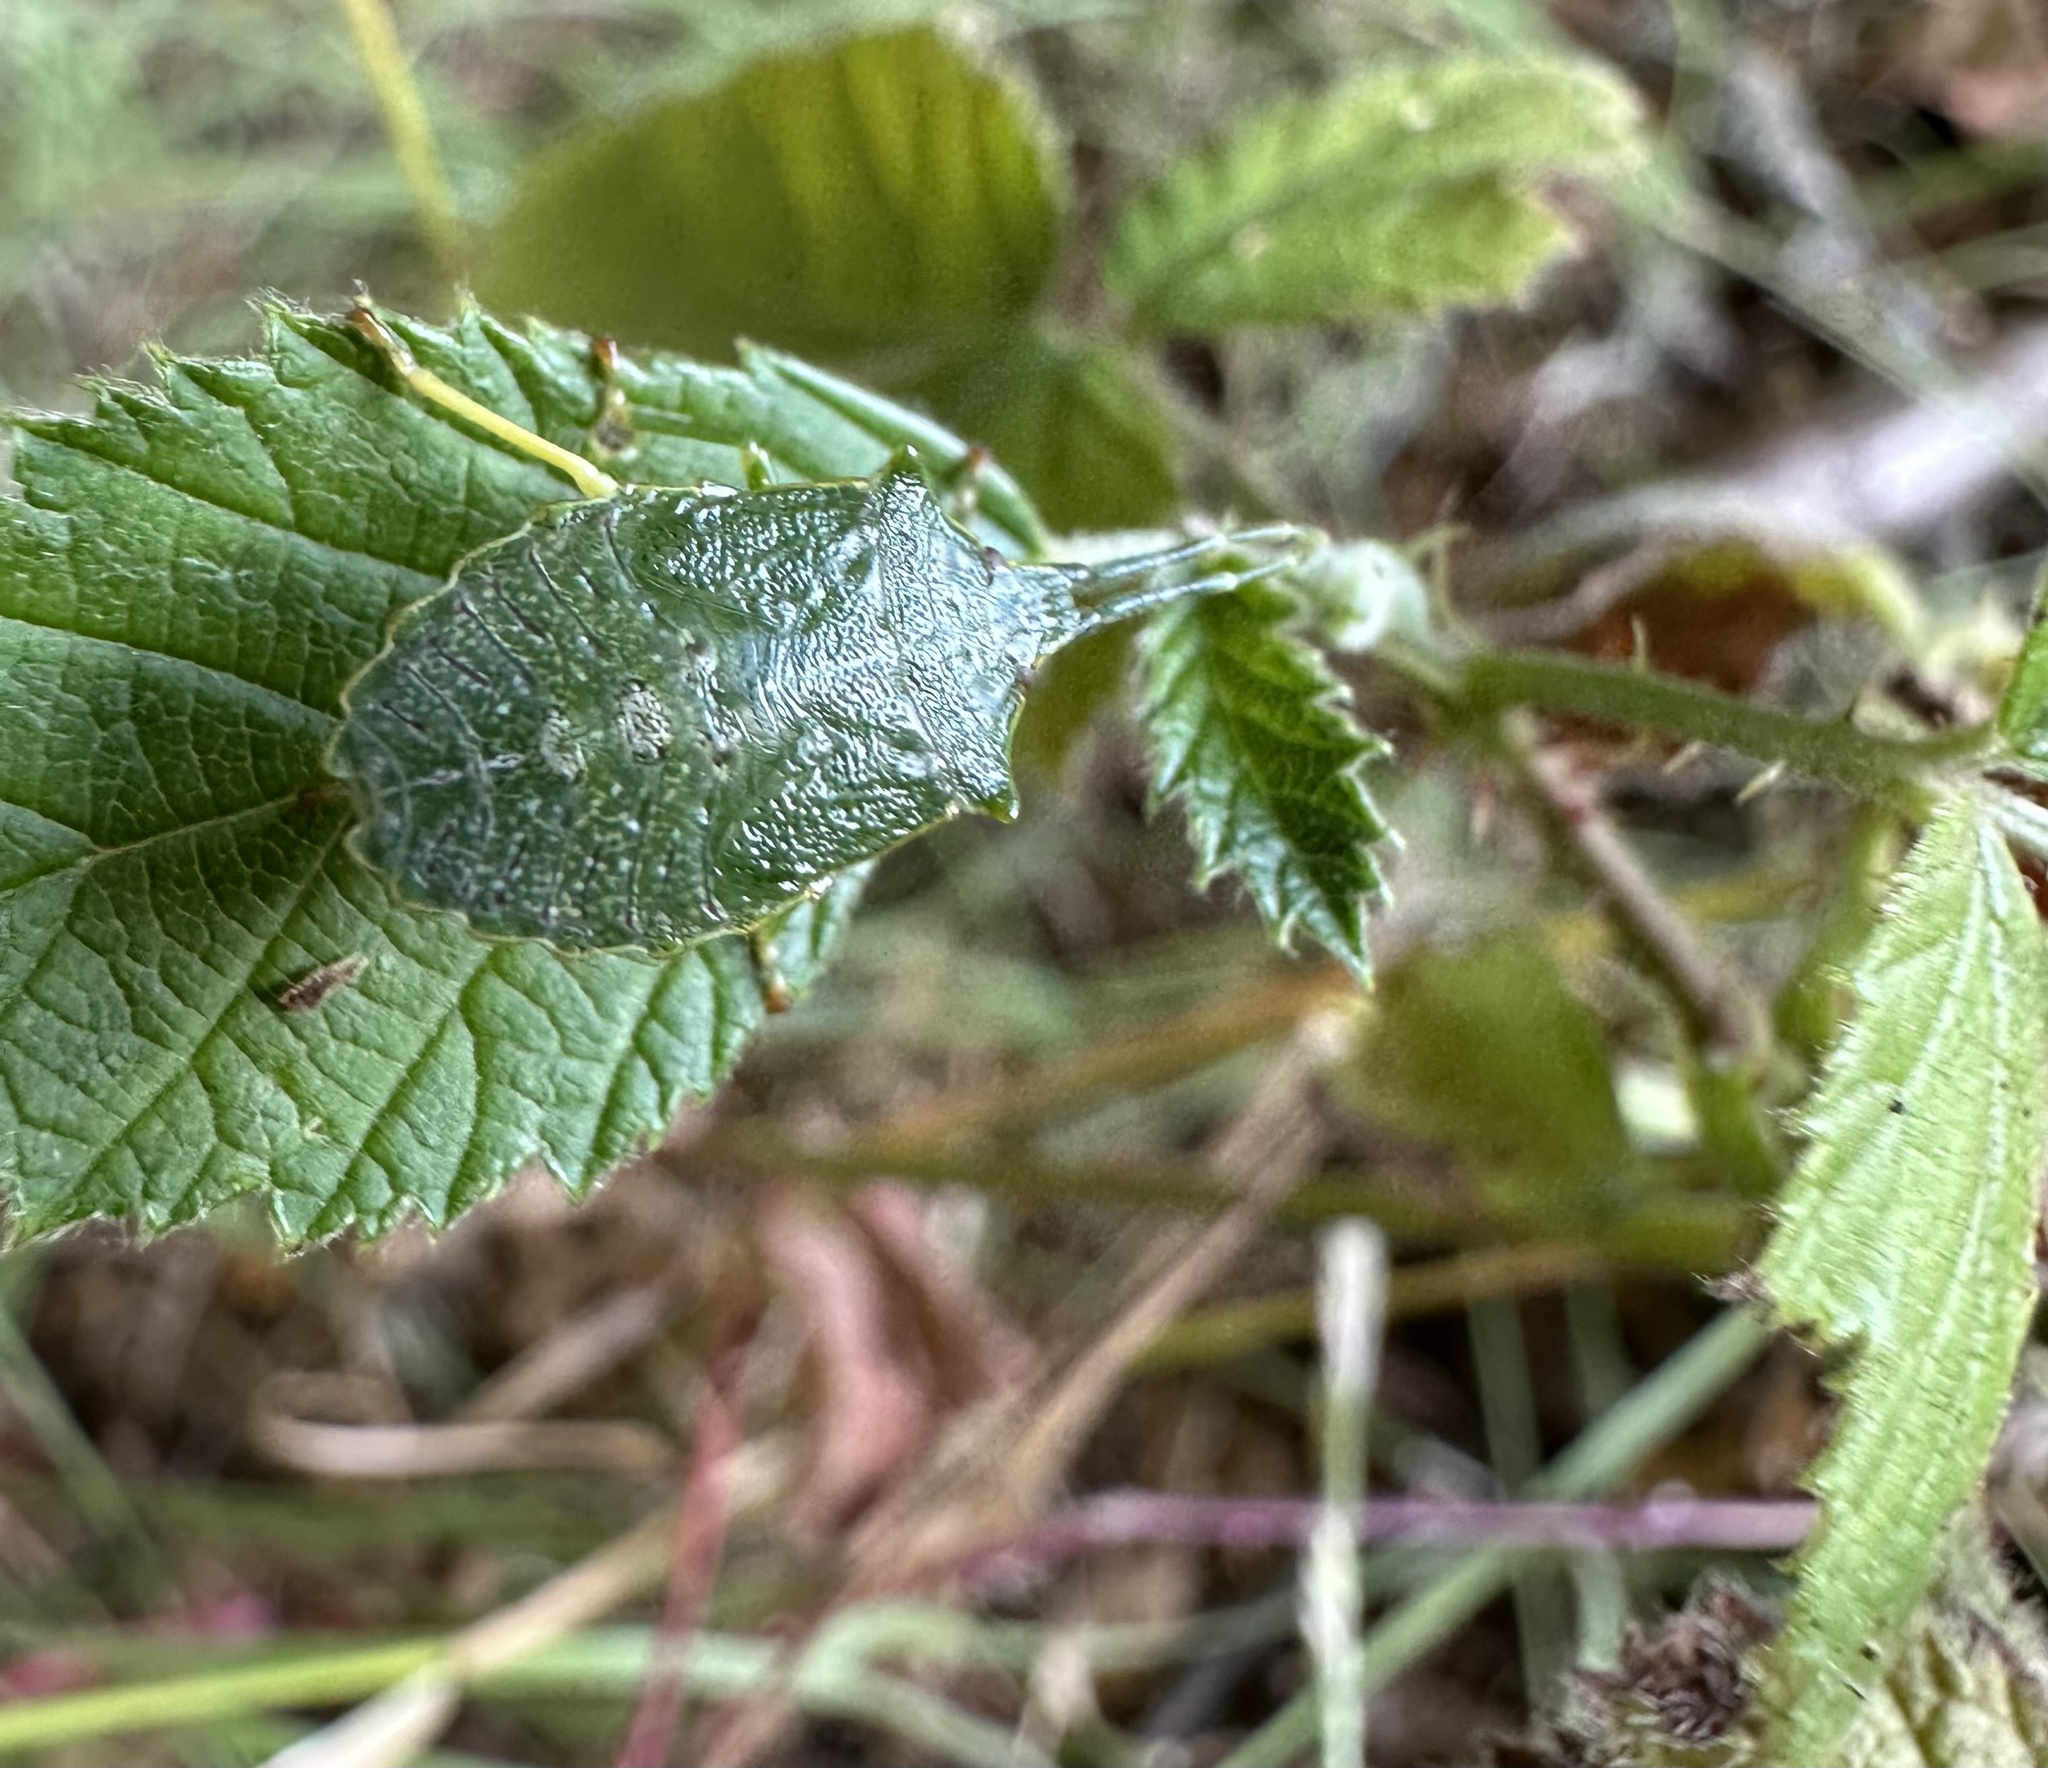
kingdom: Animalia
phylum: Arthropoda
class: Insecta
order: Hemiptera
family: Acanthosomatidae
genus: Cylindrocnema
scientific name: Cylindrocnema plana
